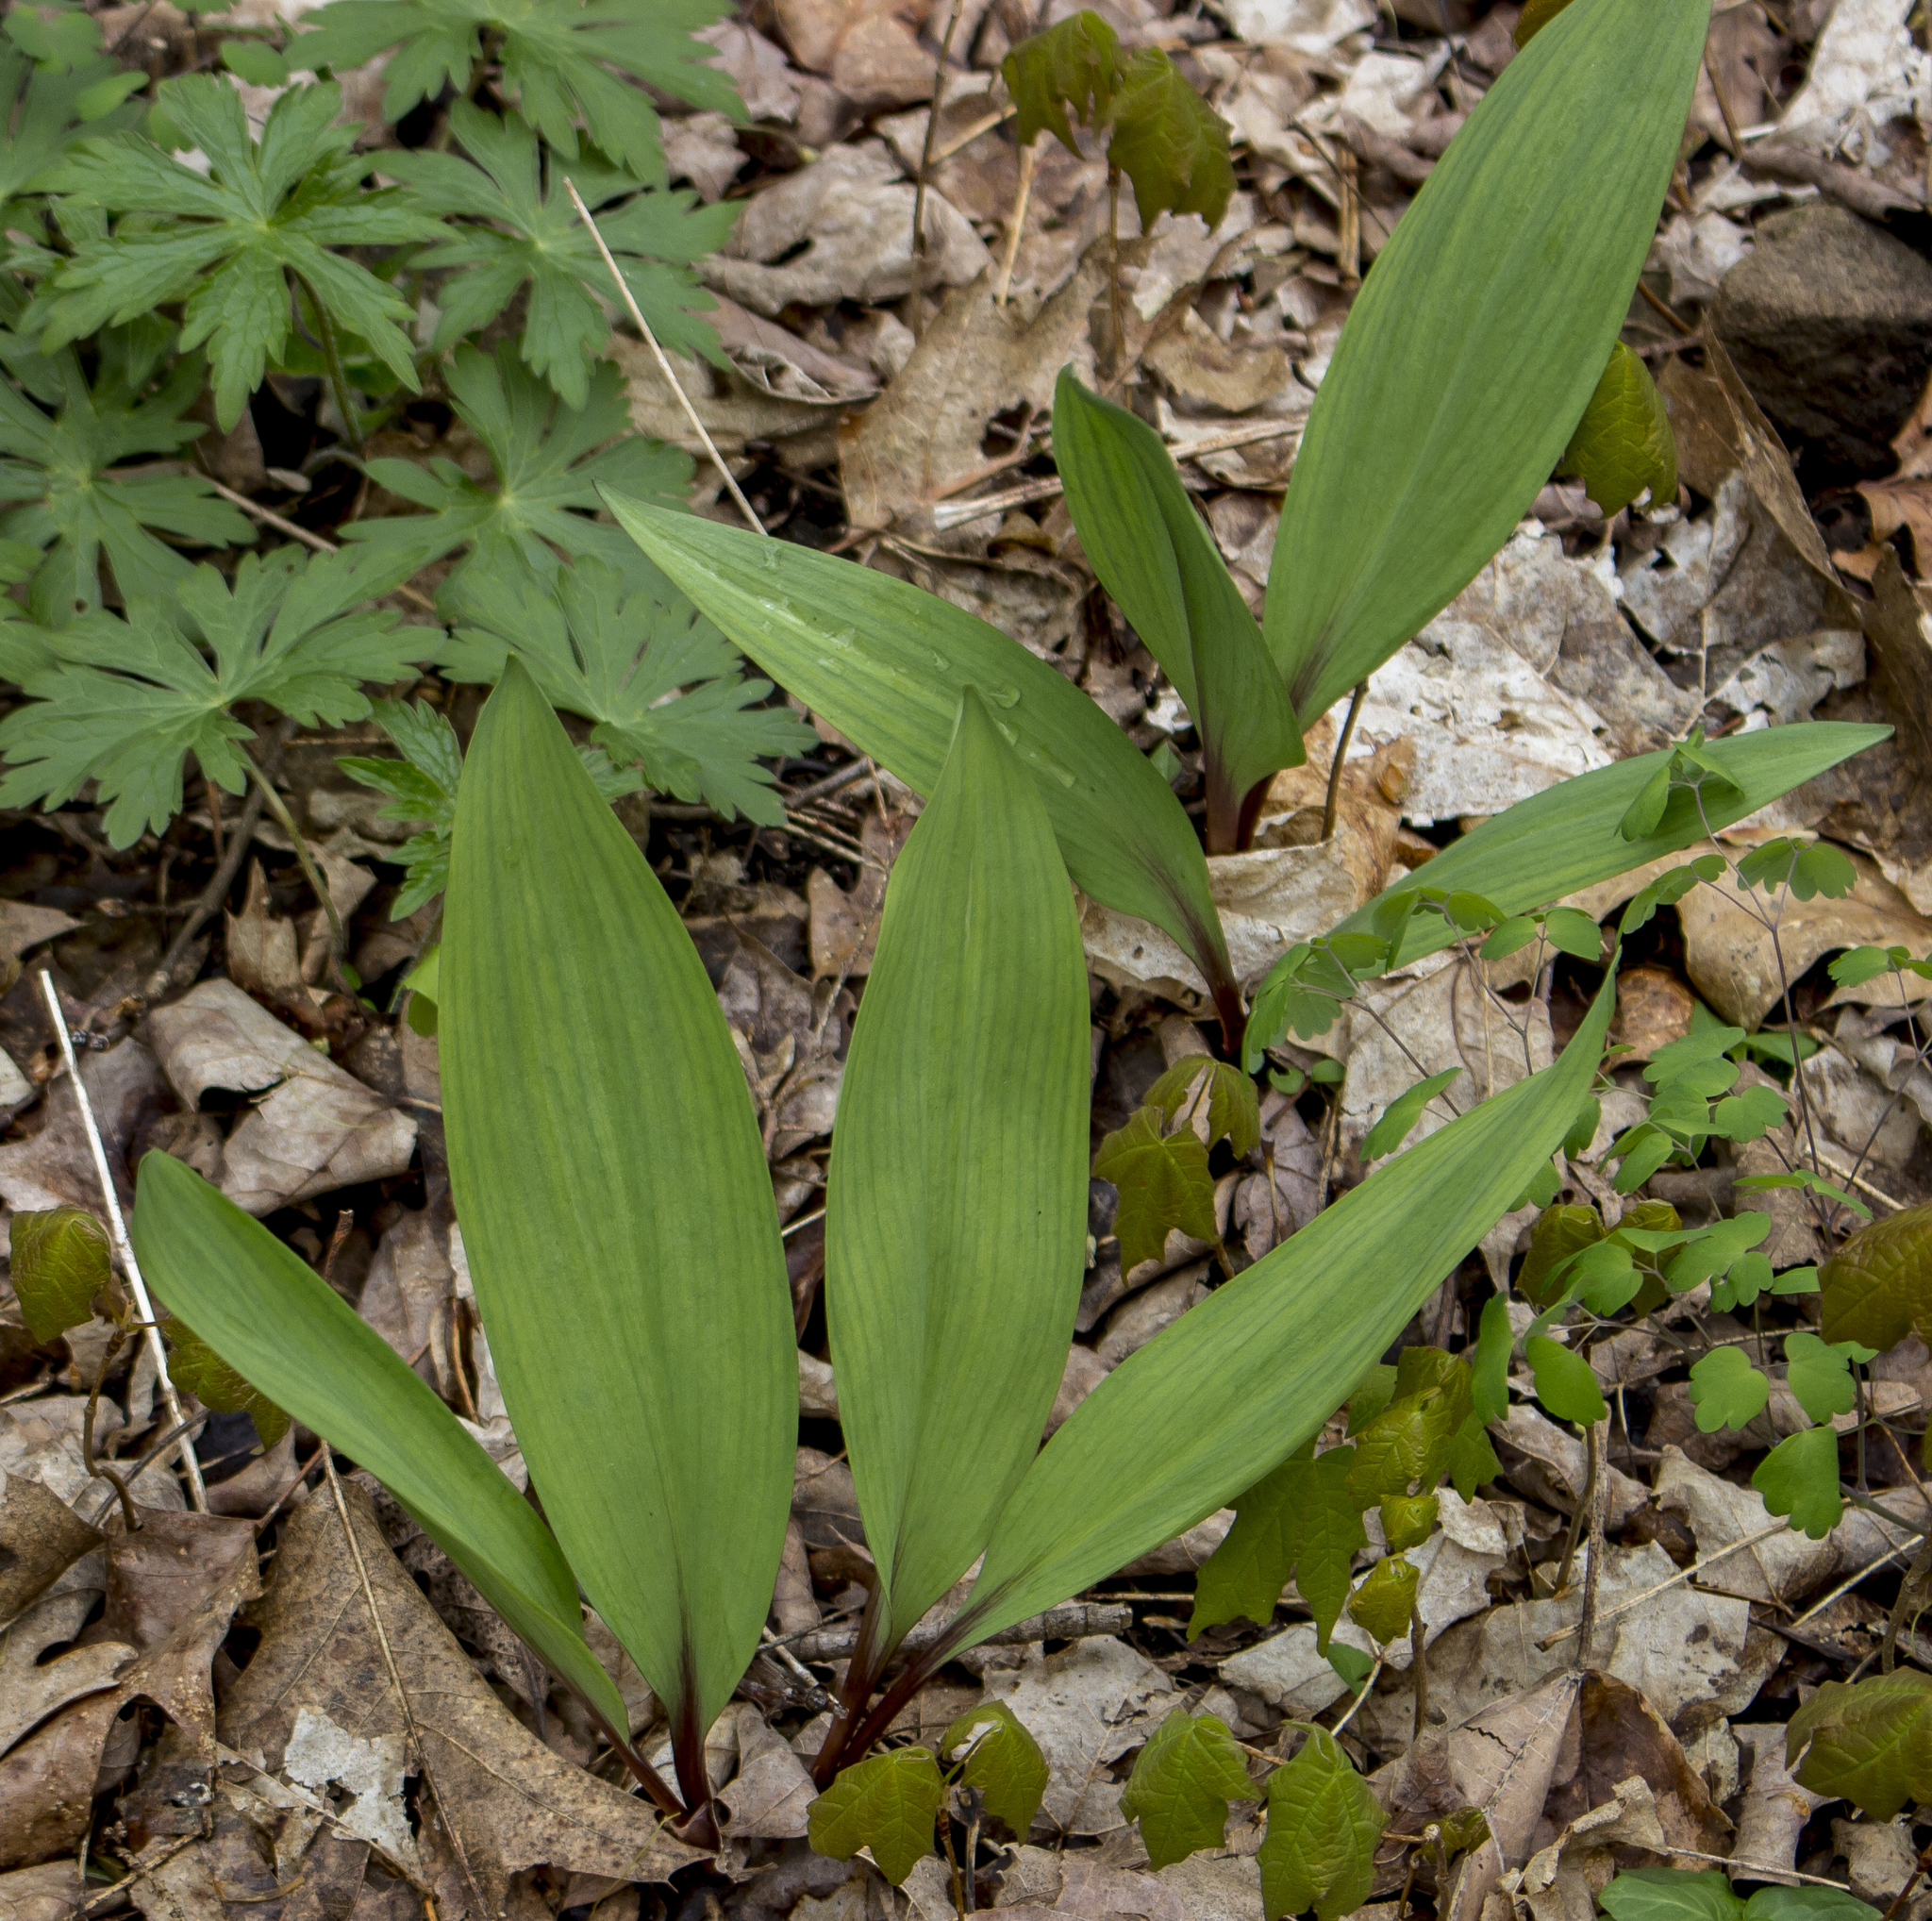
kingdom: Plantae
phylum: Tracheophyta
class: Liliopsida
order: Asparagales
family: Amaryllidaceae
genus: Allium
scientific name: Allium tricoccum
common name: Ramp
